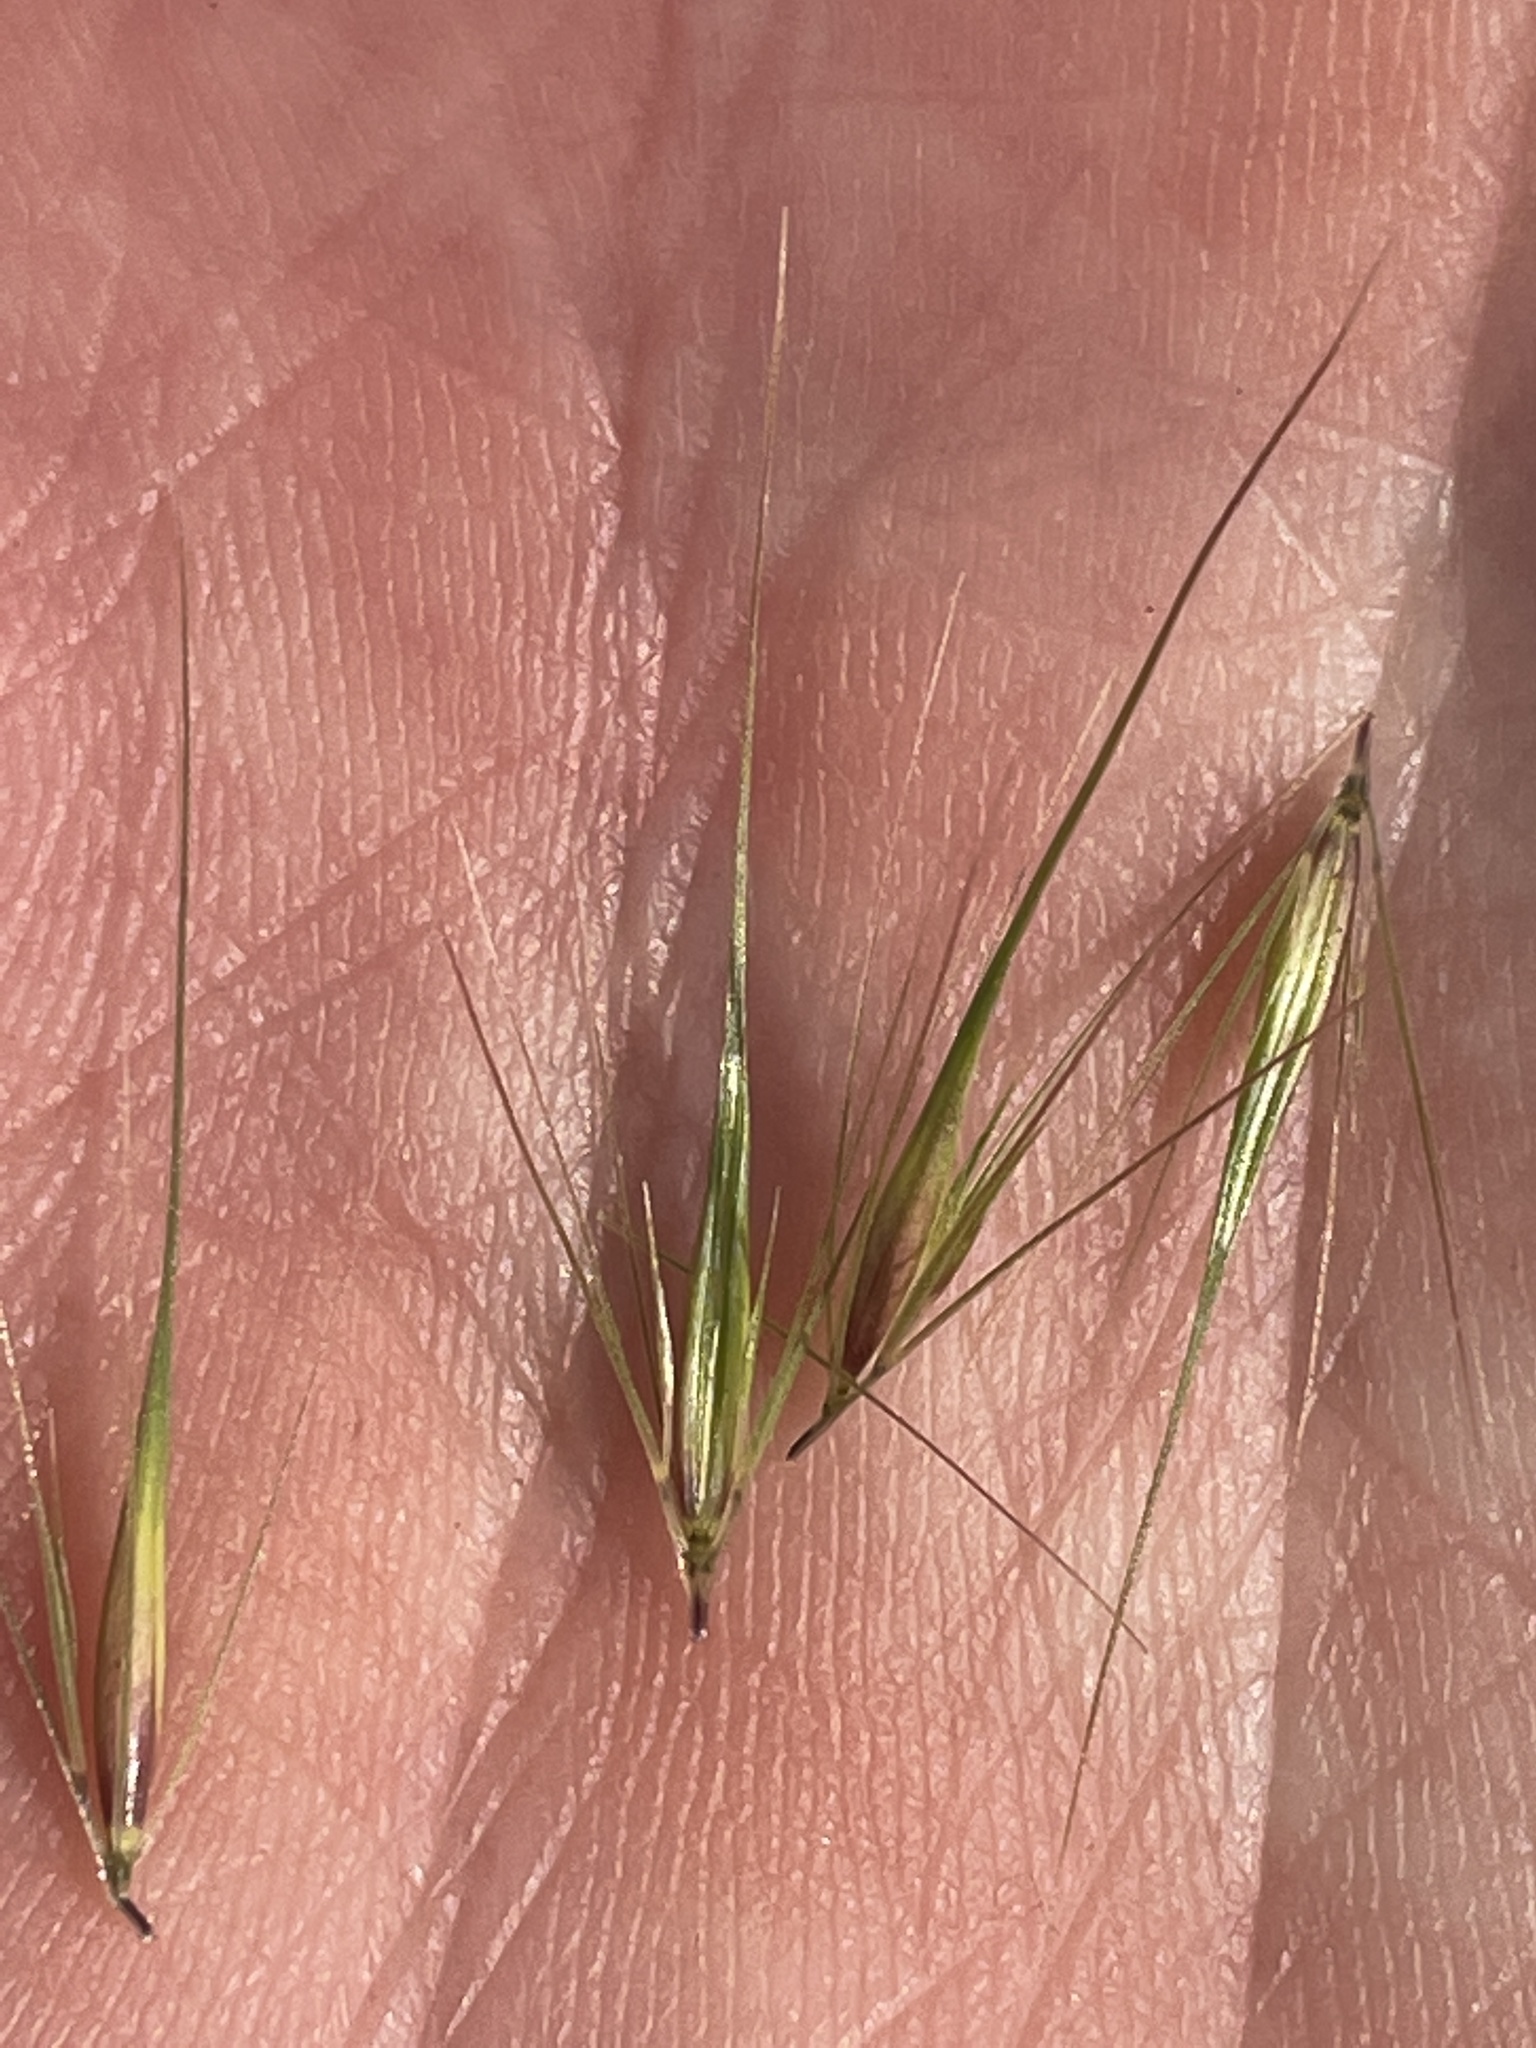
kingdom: Plantae
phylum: Tracheophyta
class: Liliopsida
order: Poales
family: Poaceae
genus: Hordeum
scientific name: Hordeum marinum
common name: Sea barley
